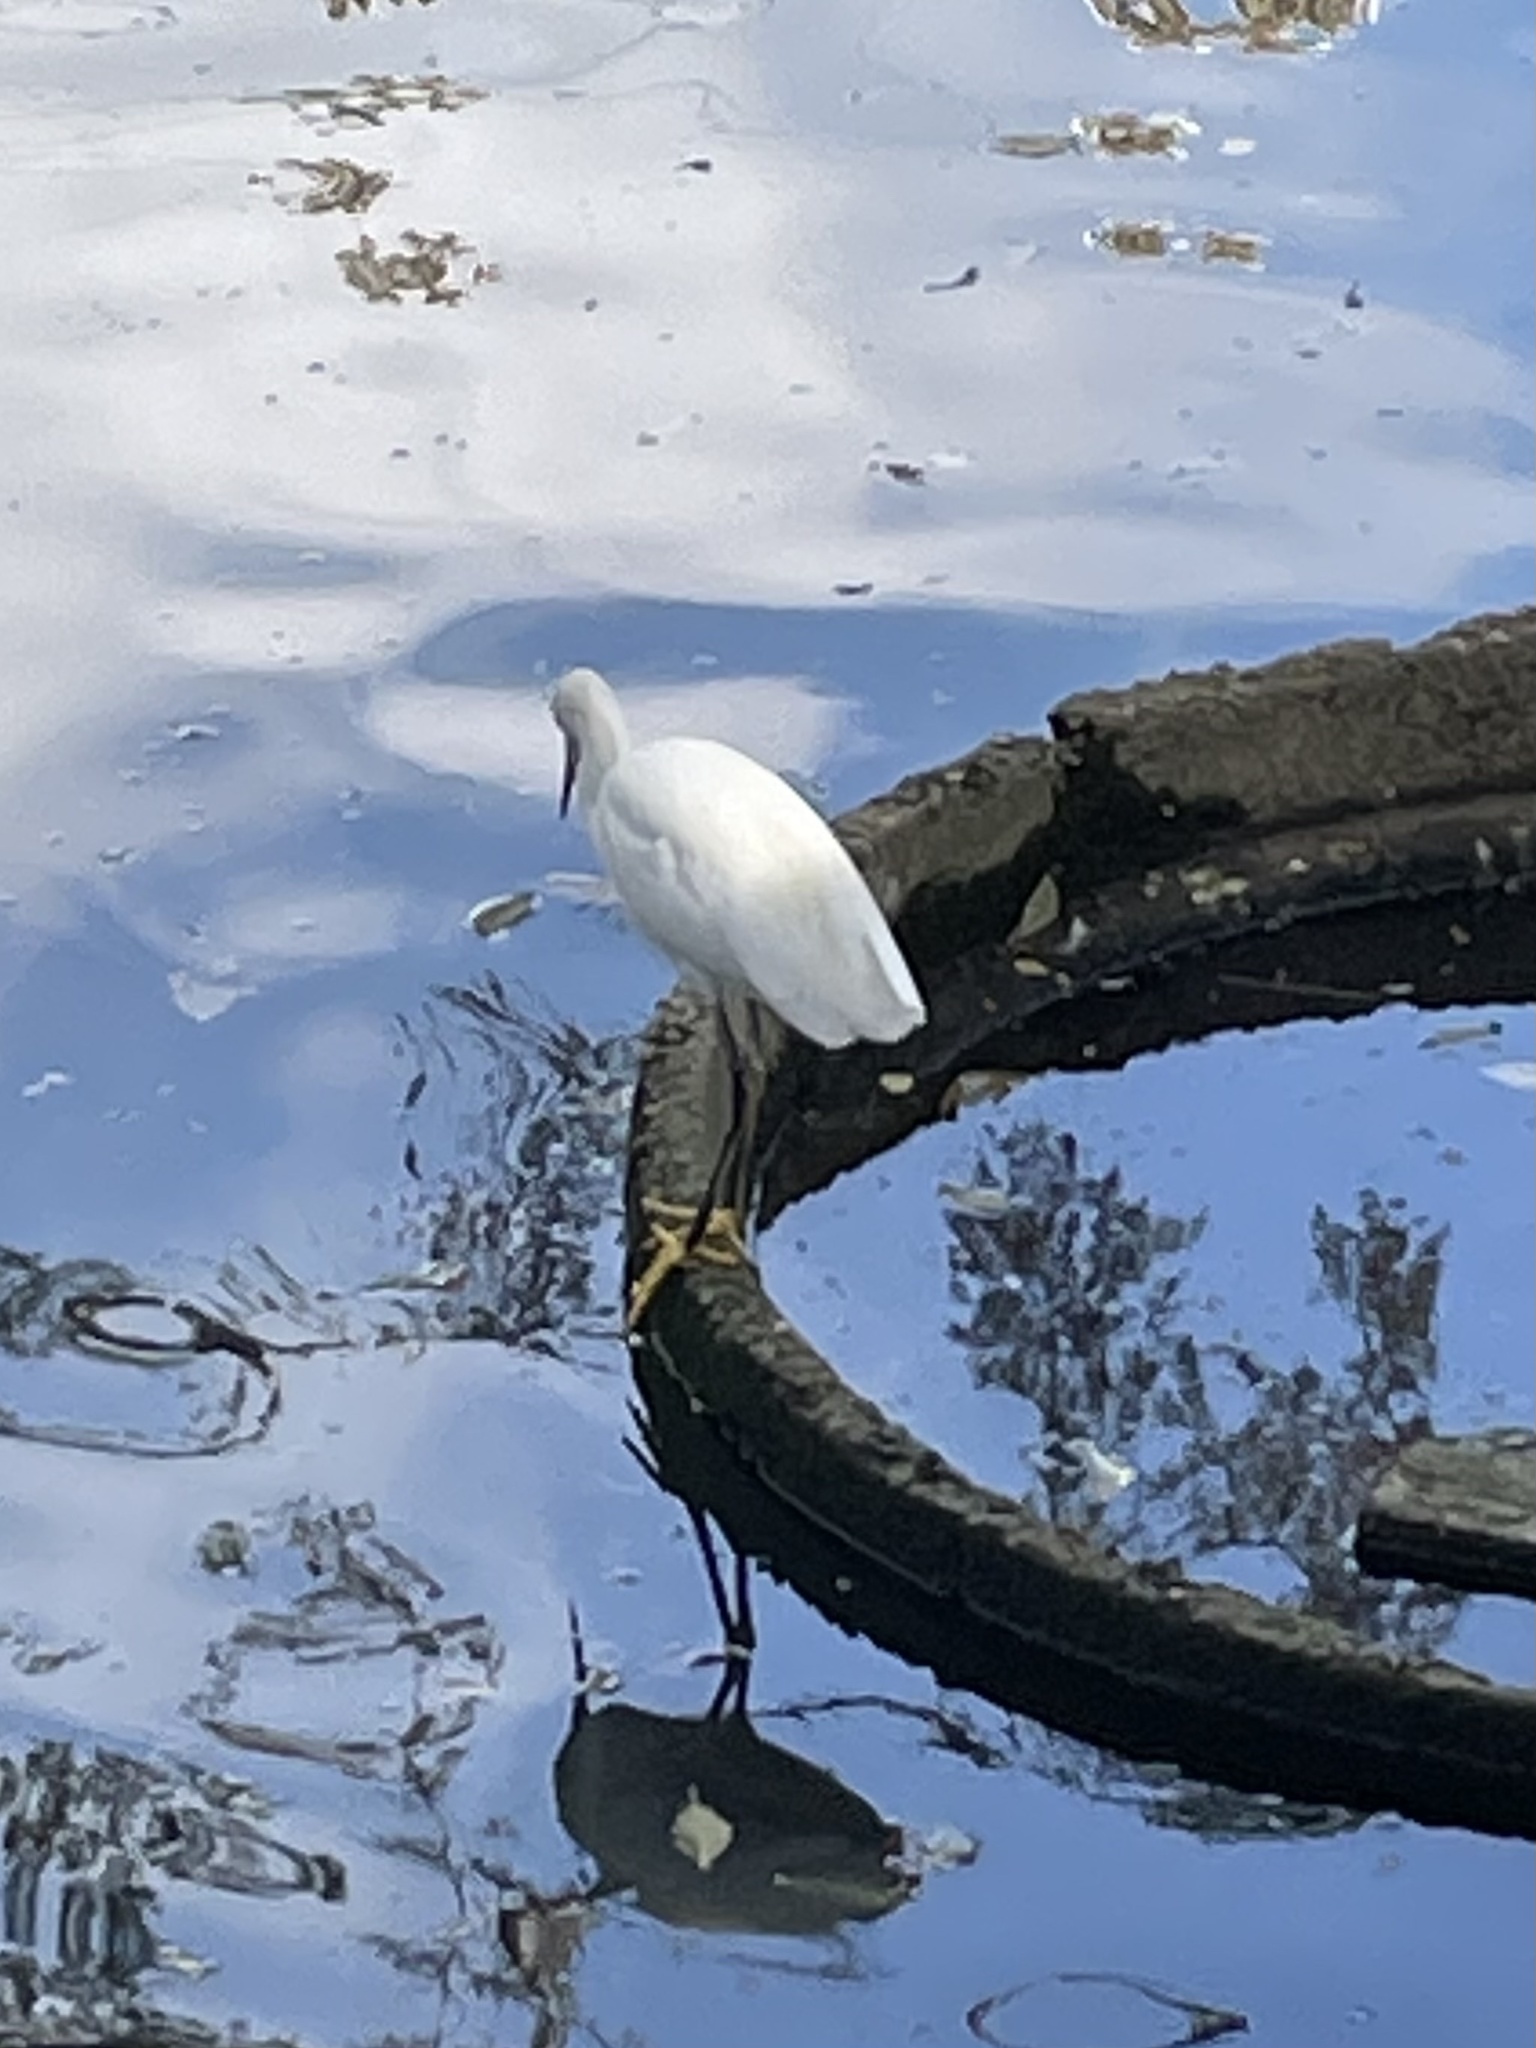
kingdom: Animalia
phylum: Chordata
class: Aves
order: Pelecaniformes
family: Ardeidae
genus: Egretta
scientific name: Egretta thula
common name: Snowy egret
